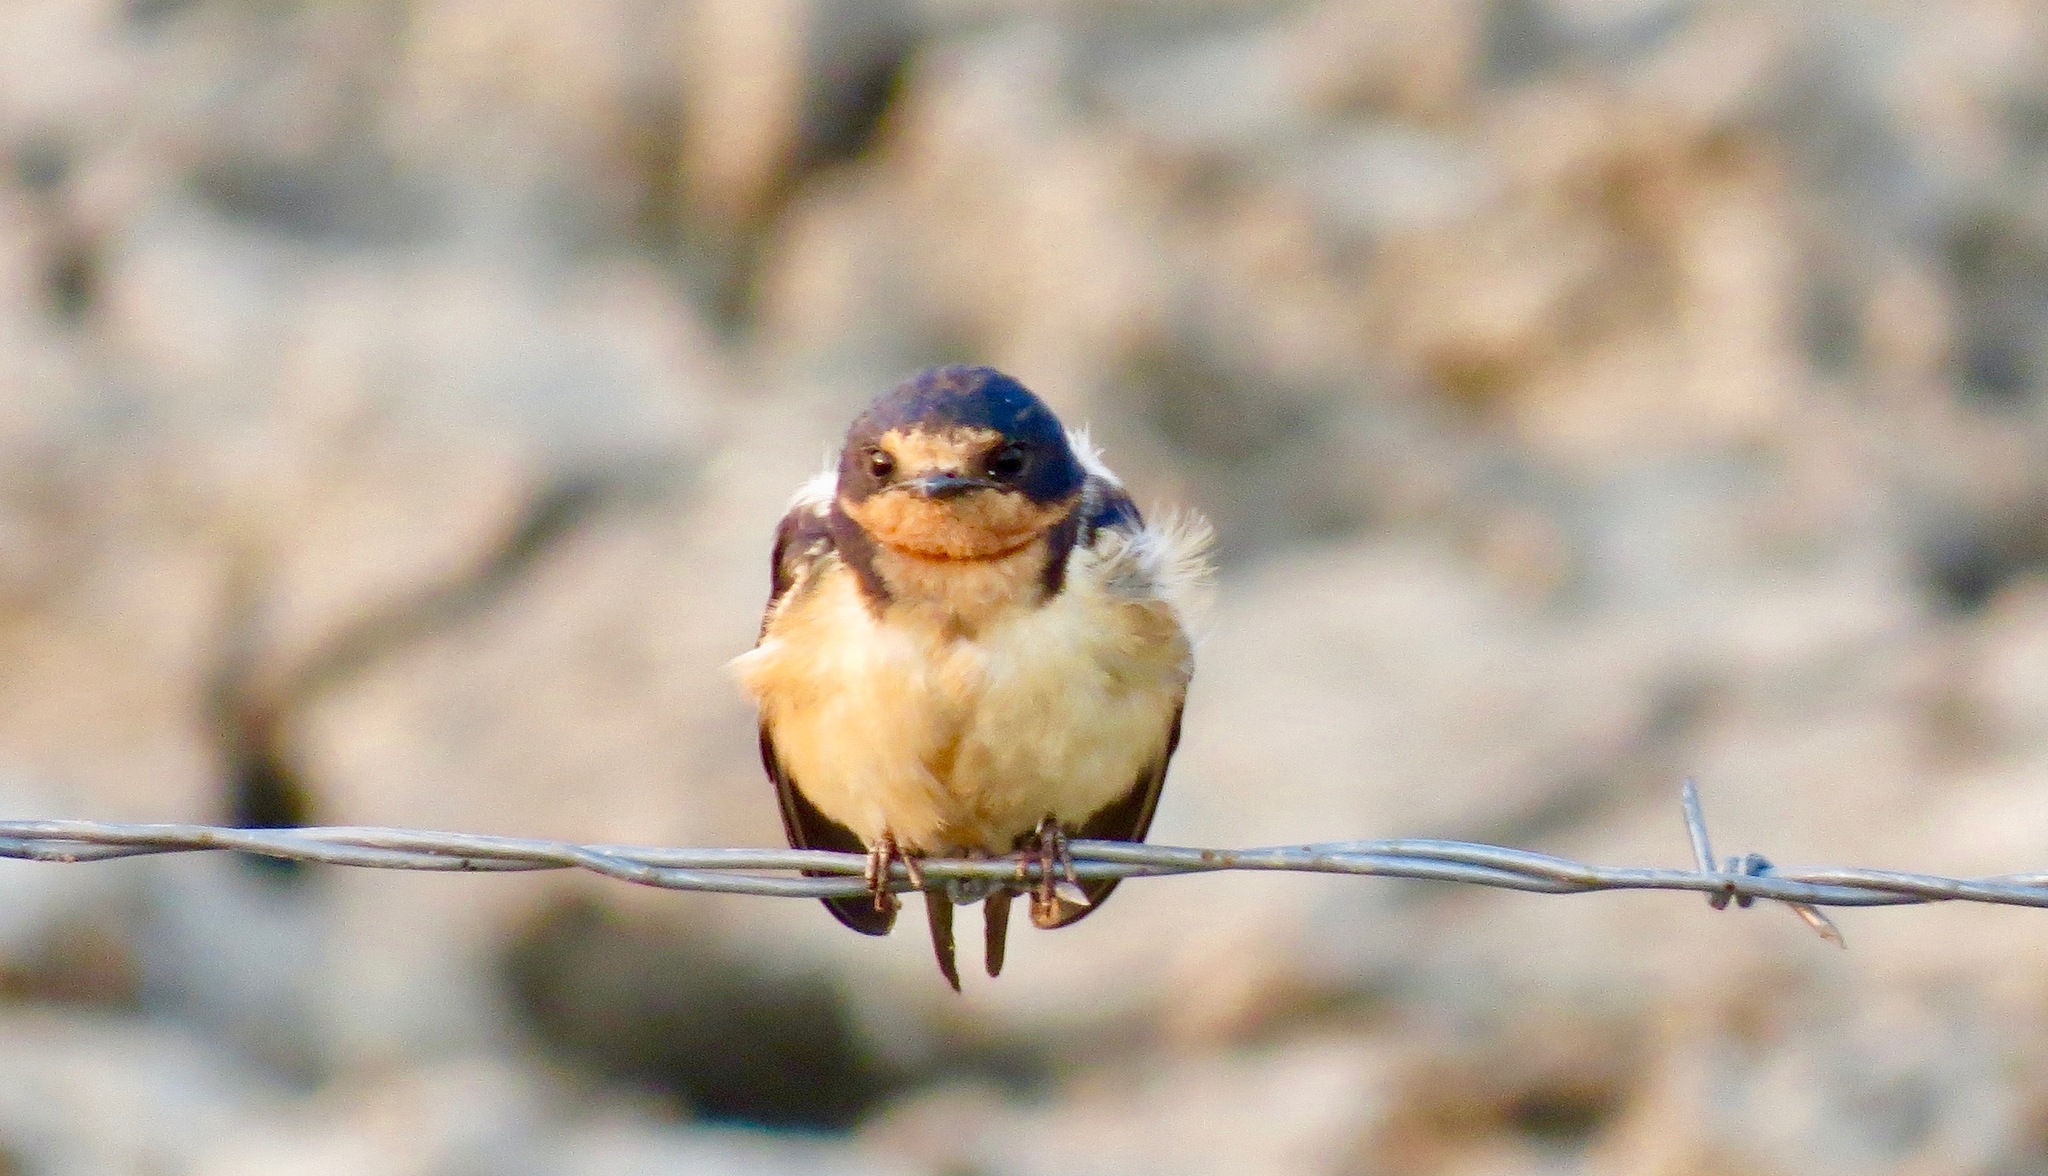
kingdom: Animalia
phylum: Chordata
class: Aves
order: Passeriformes
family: Hirundinidae
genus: Hirundo
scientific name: Hirundo rustica
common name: Barn swallow
